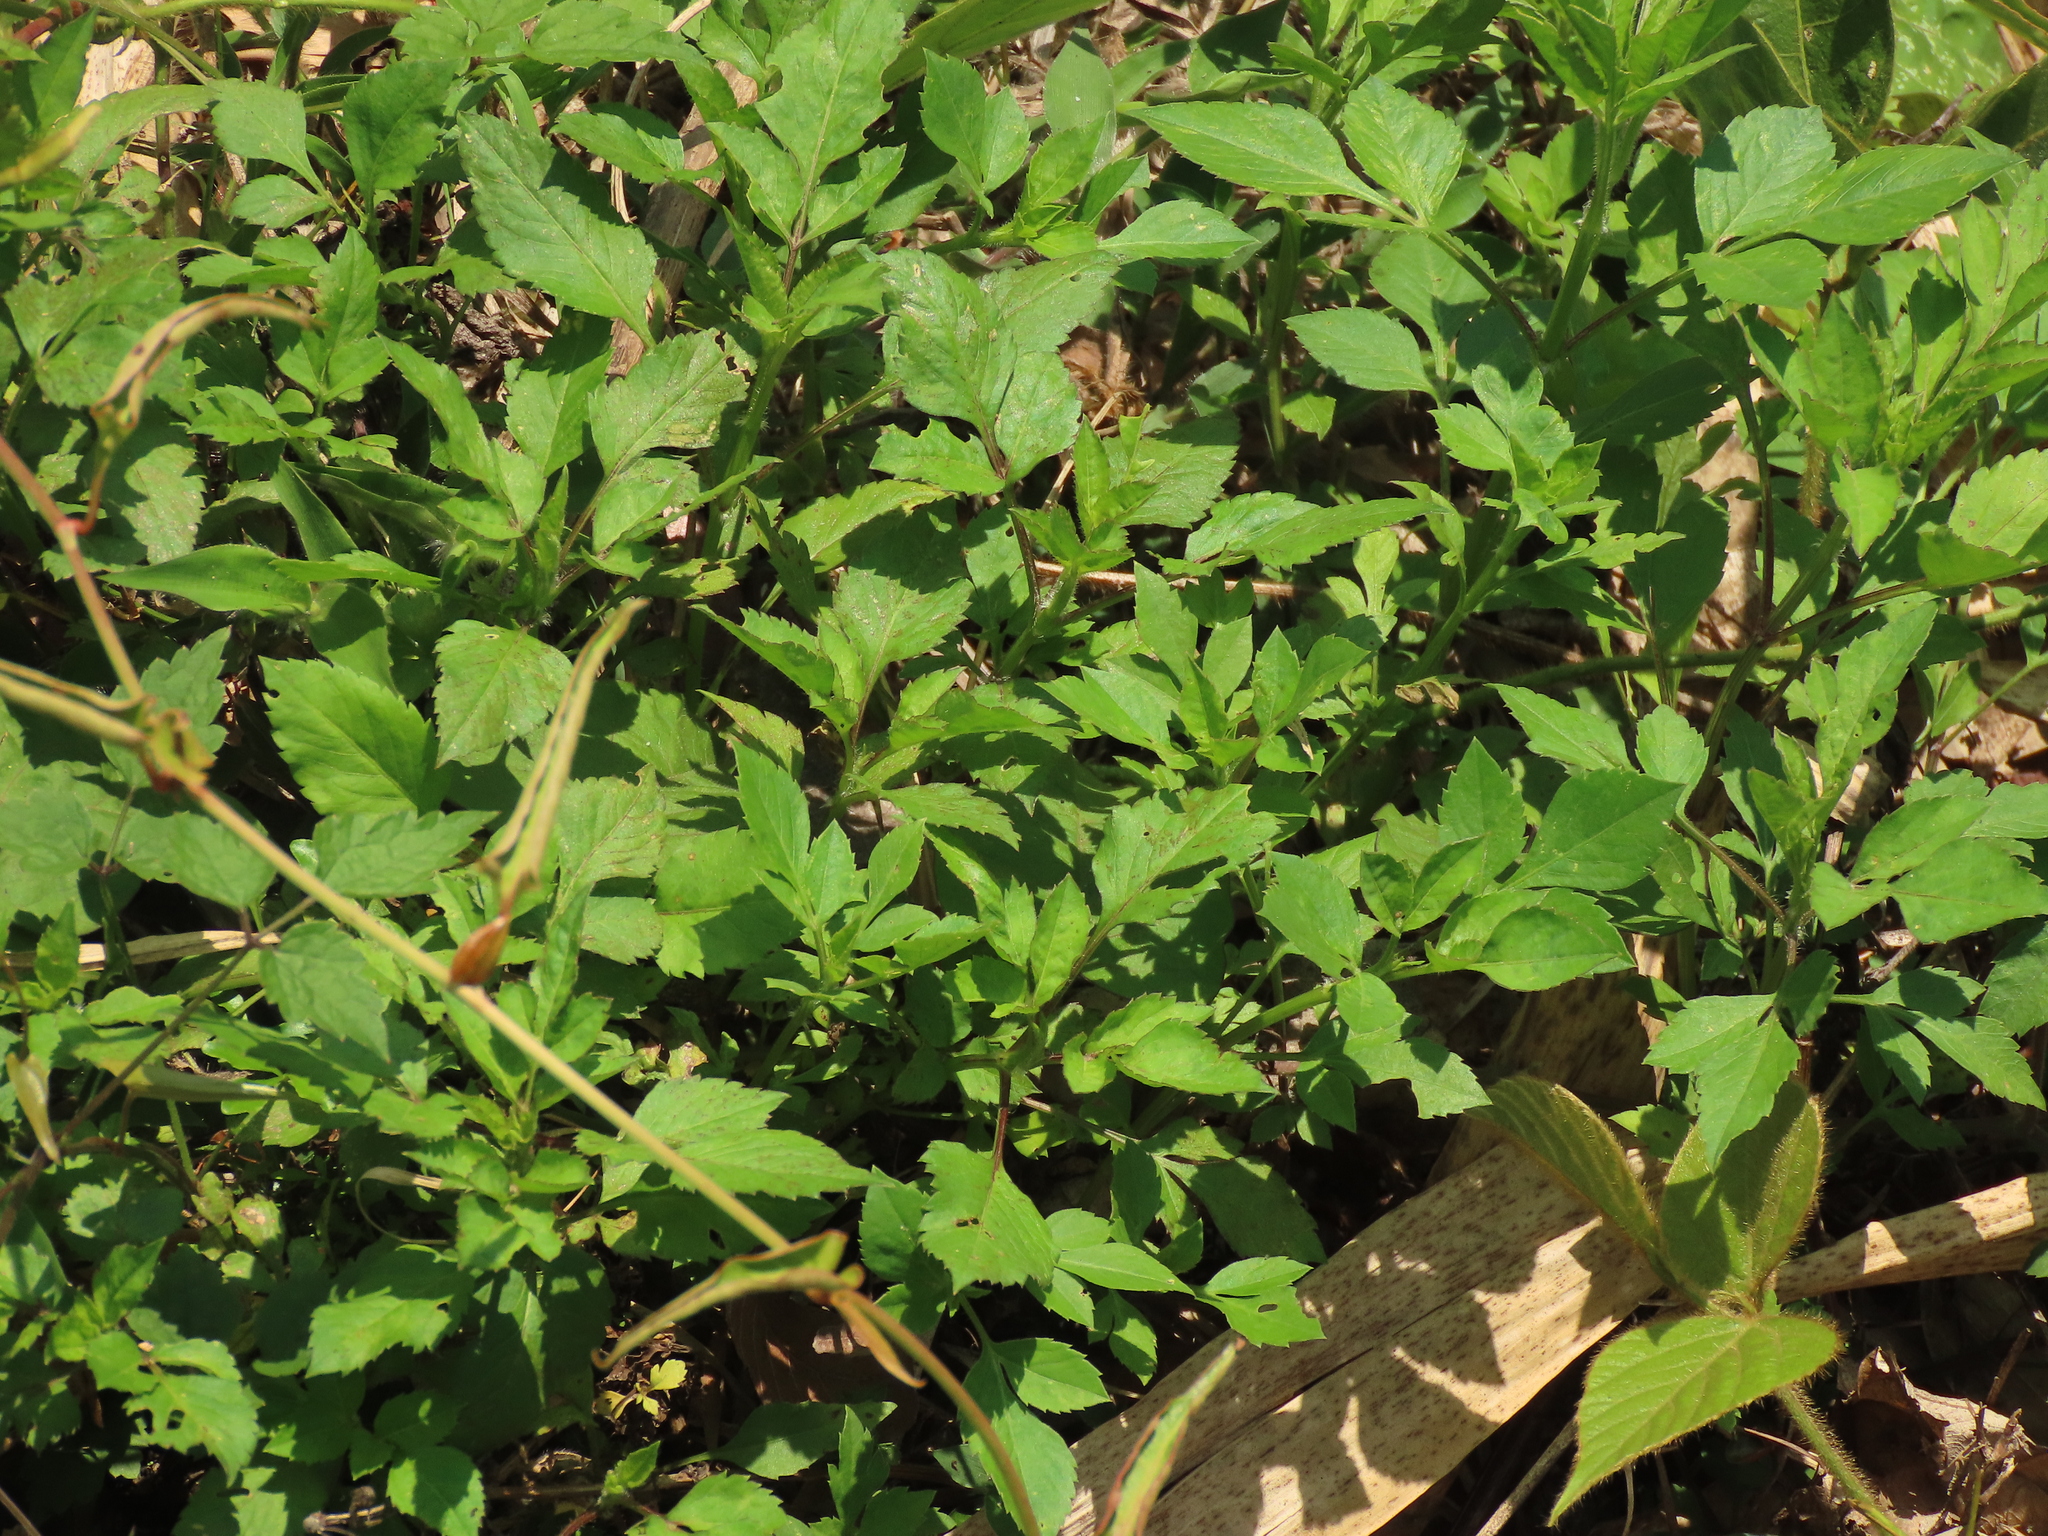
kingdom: Plantae
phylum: Tracheophyta
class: Magnoliopsida
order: Asterales
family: Asteraceae
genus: Bidens
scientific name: Bidens alba
